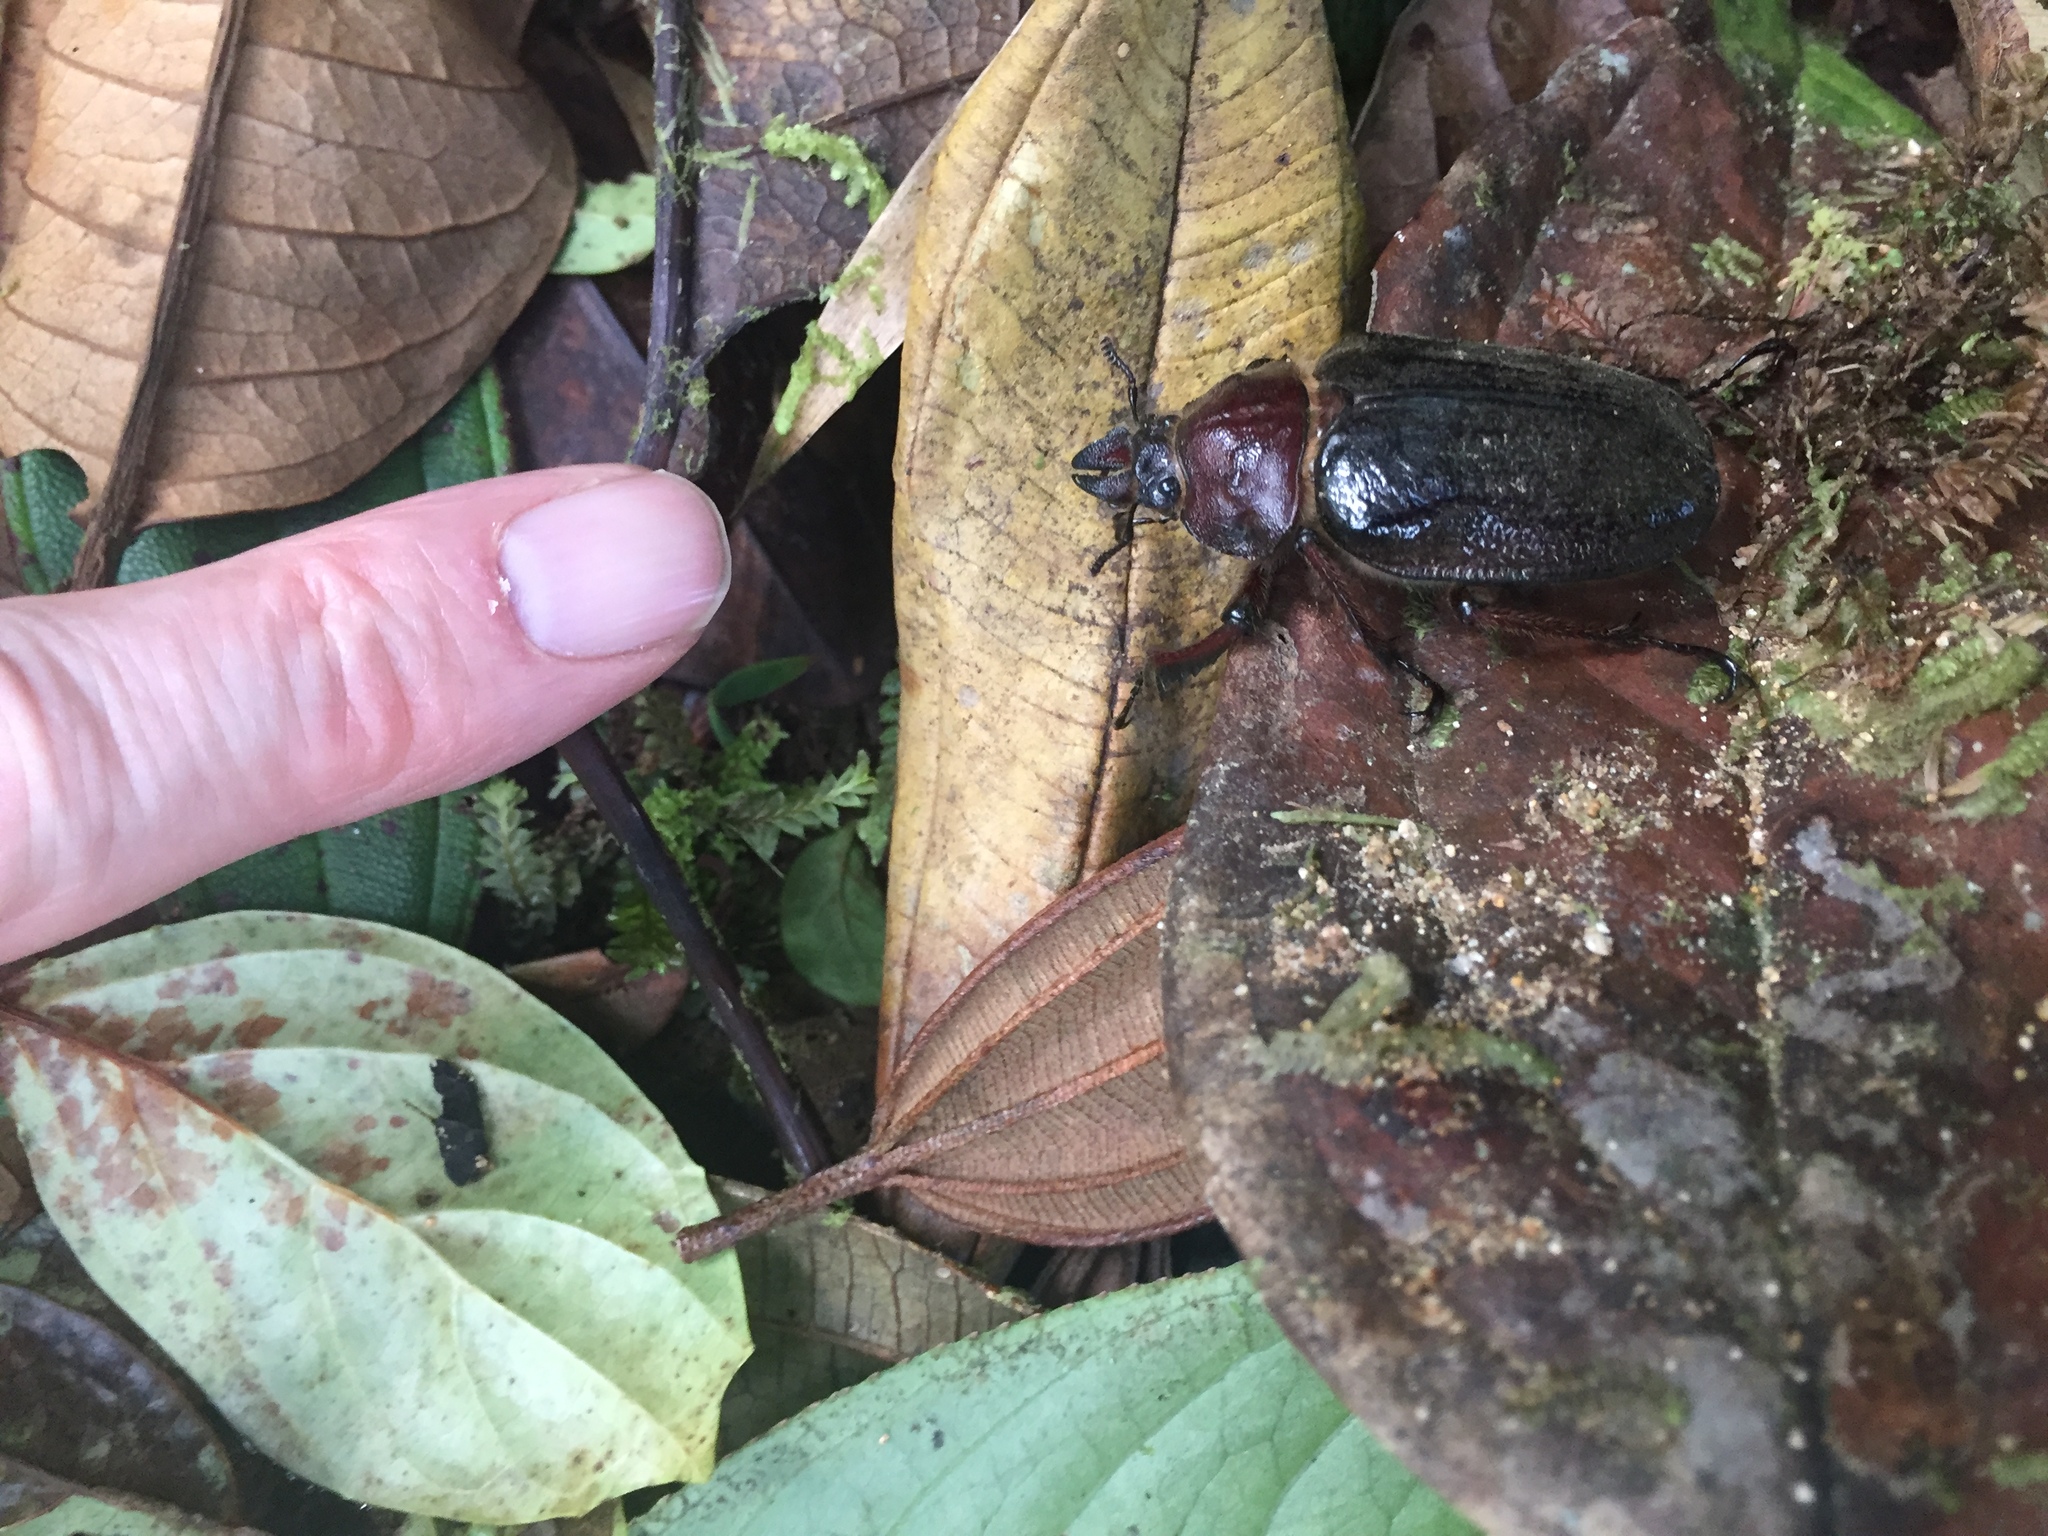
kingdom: Animalia
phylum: Arthropoda
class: Insecta
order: Coleoptera
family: Lucanidae
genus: Sphaenognathus
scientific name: Sphaenognathus kolbei
